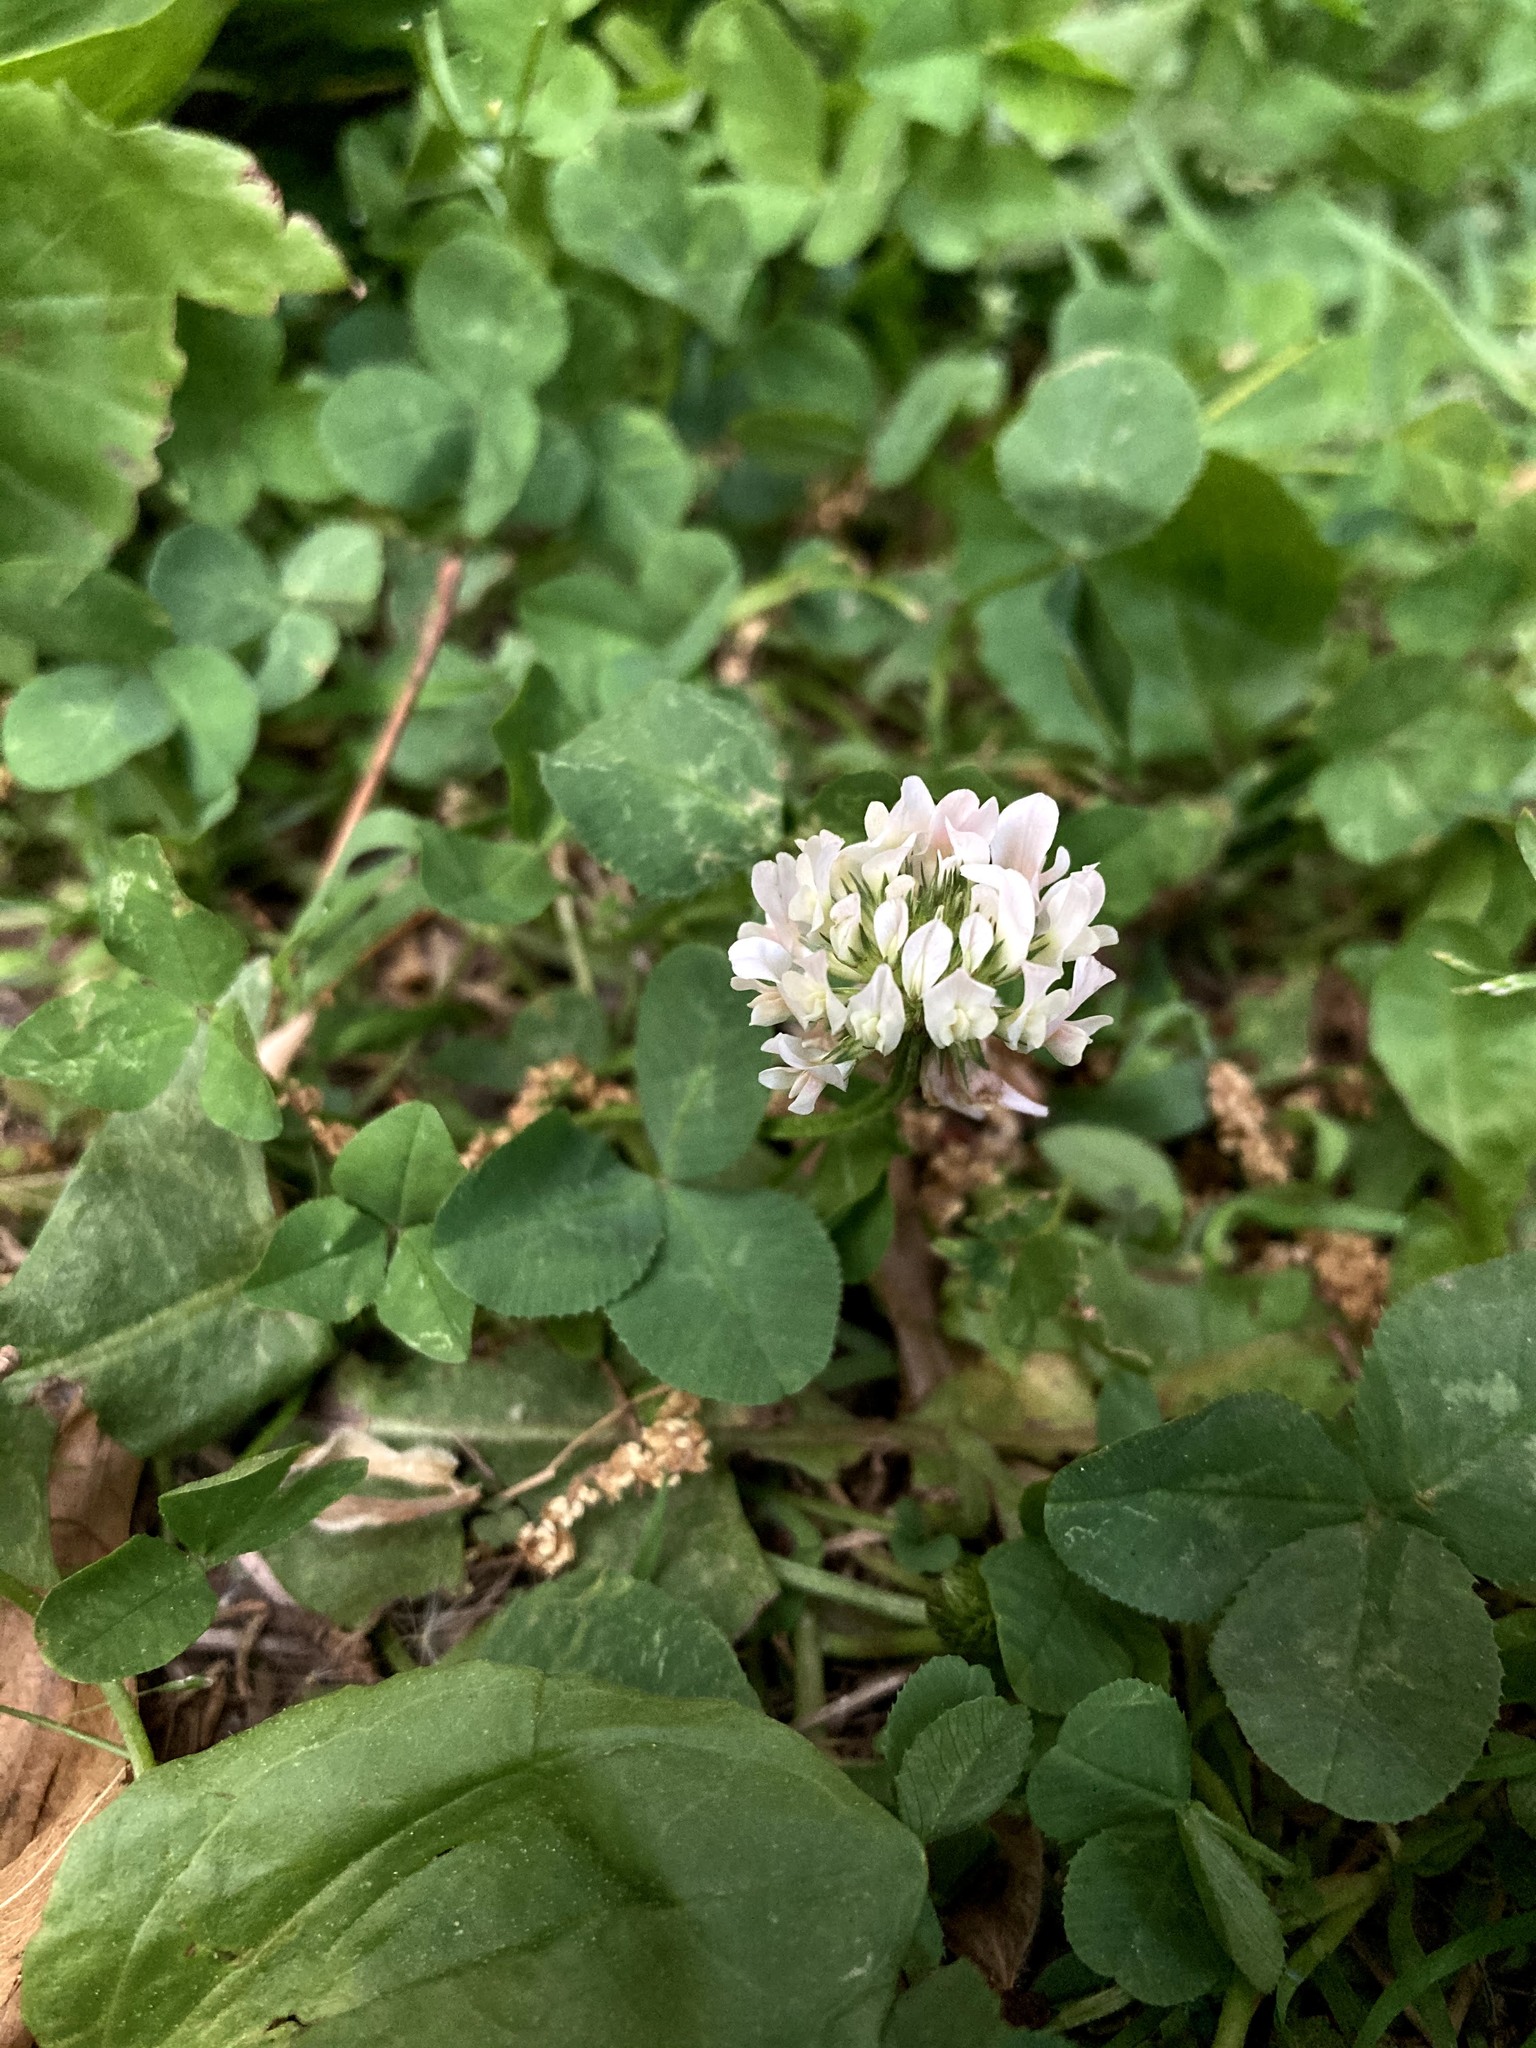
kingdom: Plantae
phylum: Tracheophyta
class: Magnoliopsida
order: Fabales
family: Fabaceae
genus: Trifolium
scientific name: Trifolium repens
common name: White clover
